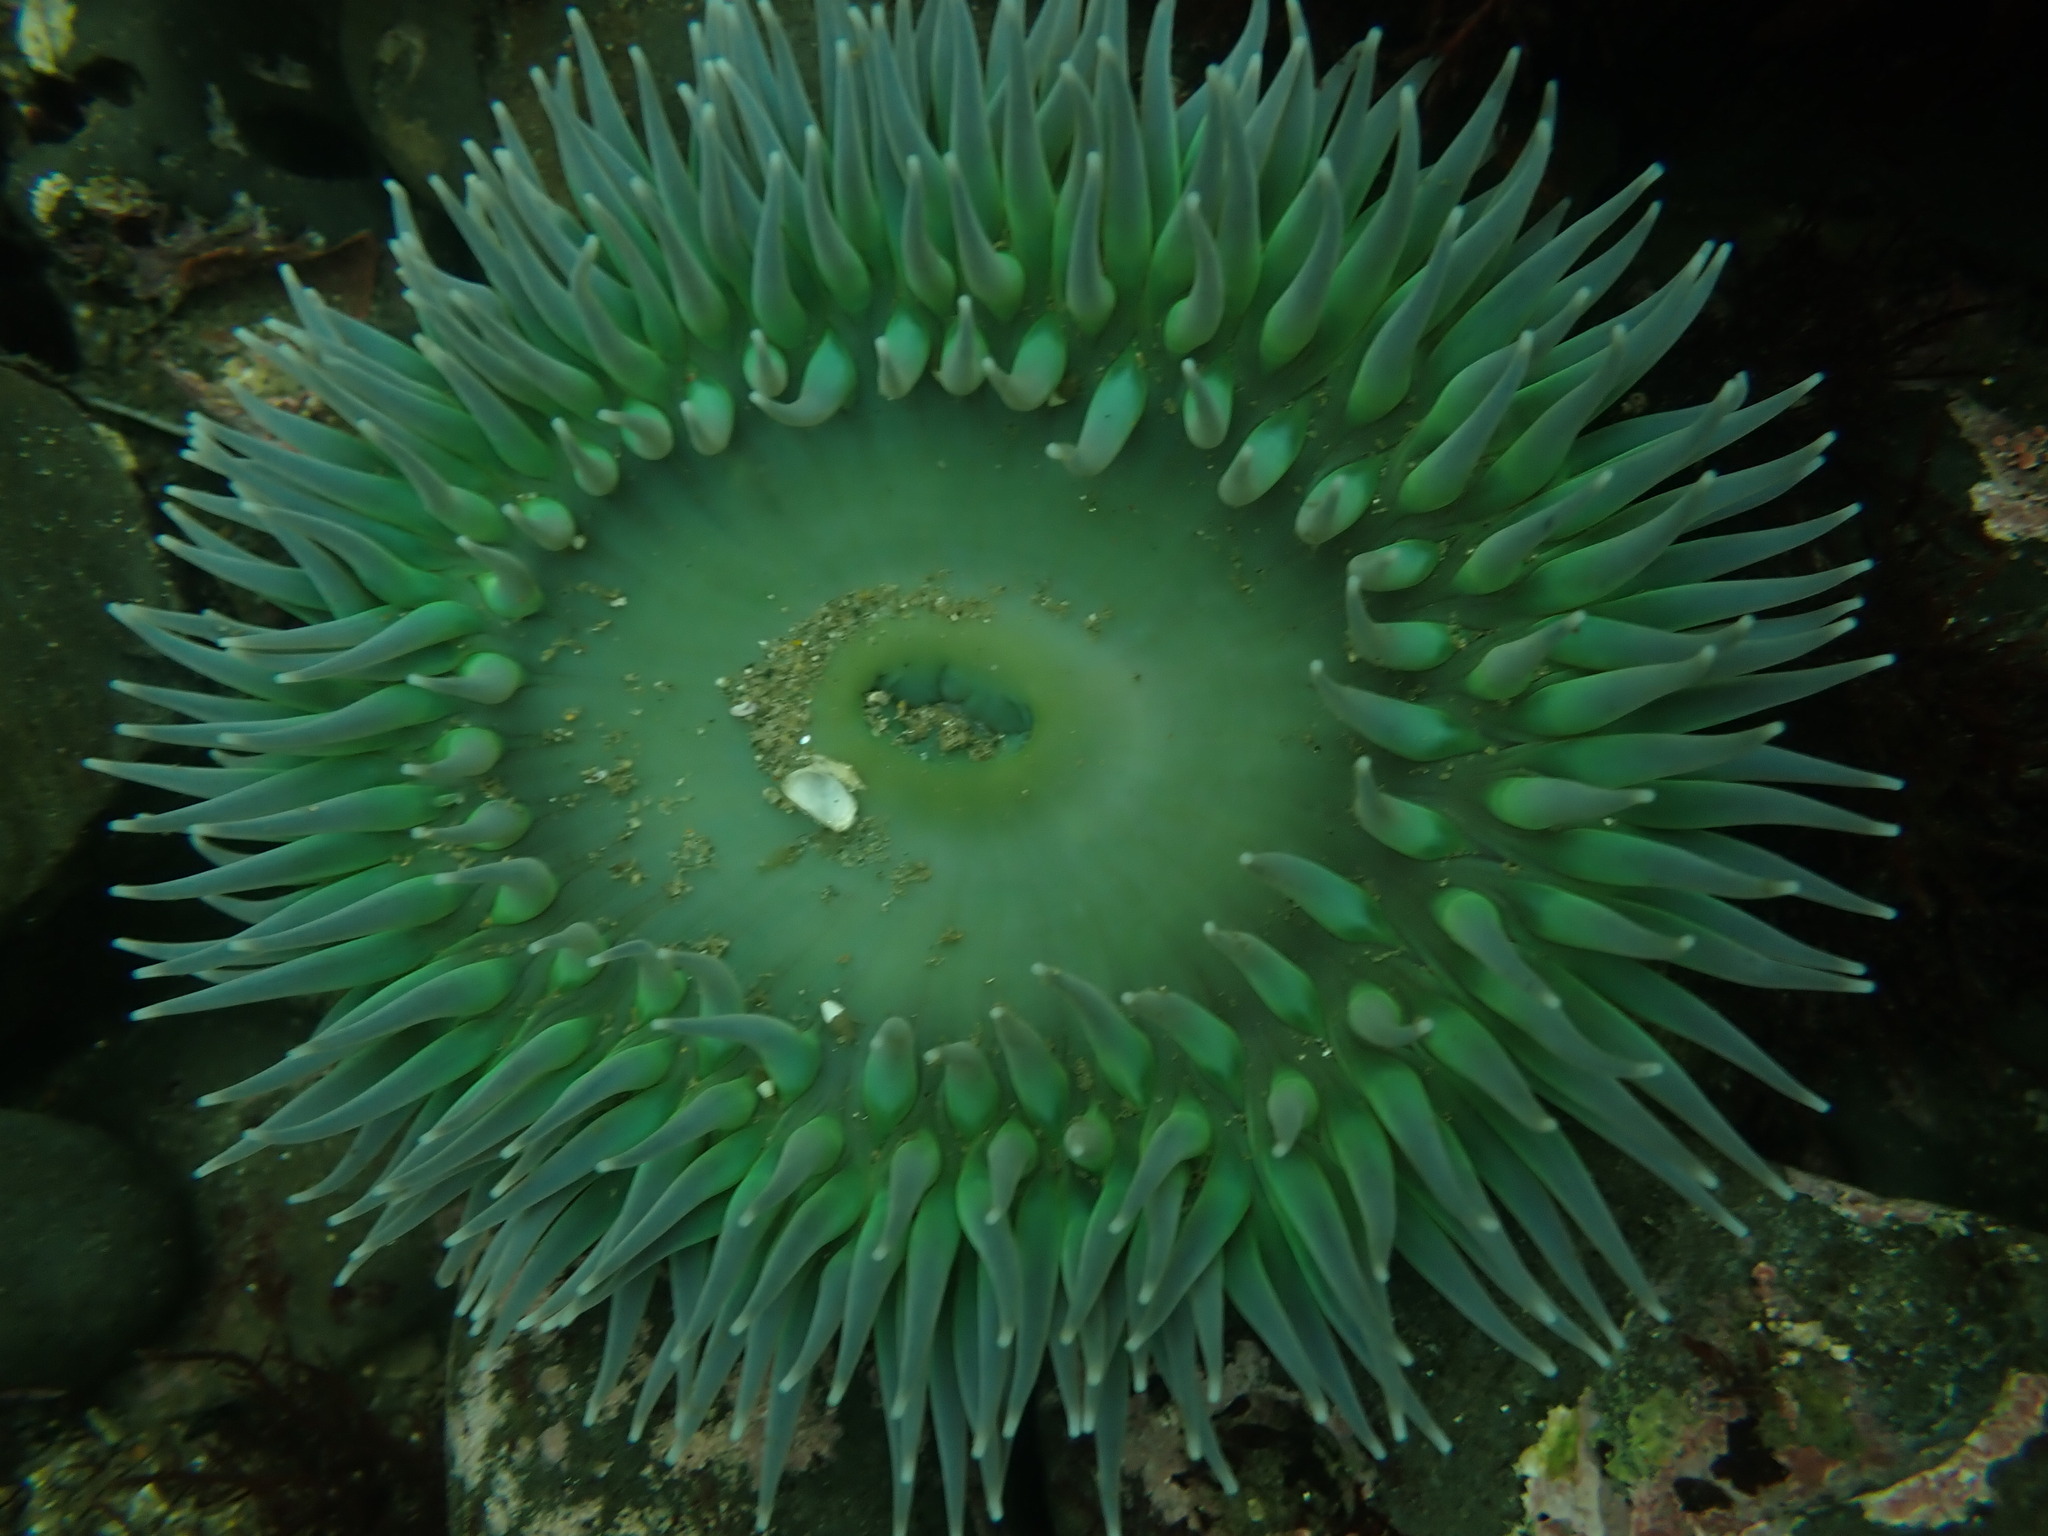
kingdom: Animalia
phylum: Cnidaria
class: Anthozoa
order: Actiniaria
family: Actiniidae
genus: Anthopleura
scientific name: Anthopleura xanthogrammica
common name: Giant green anemone
